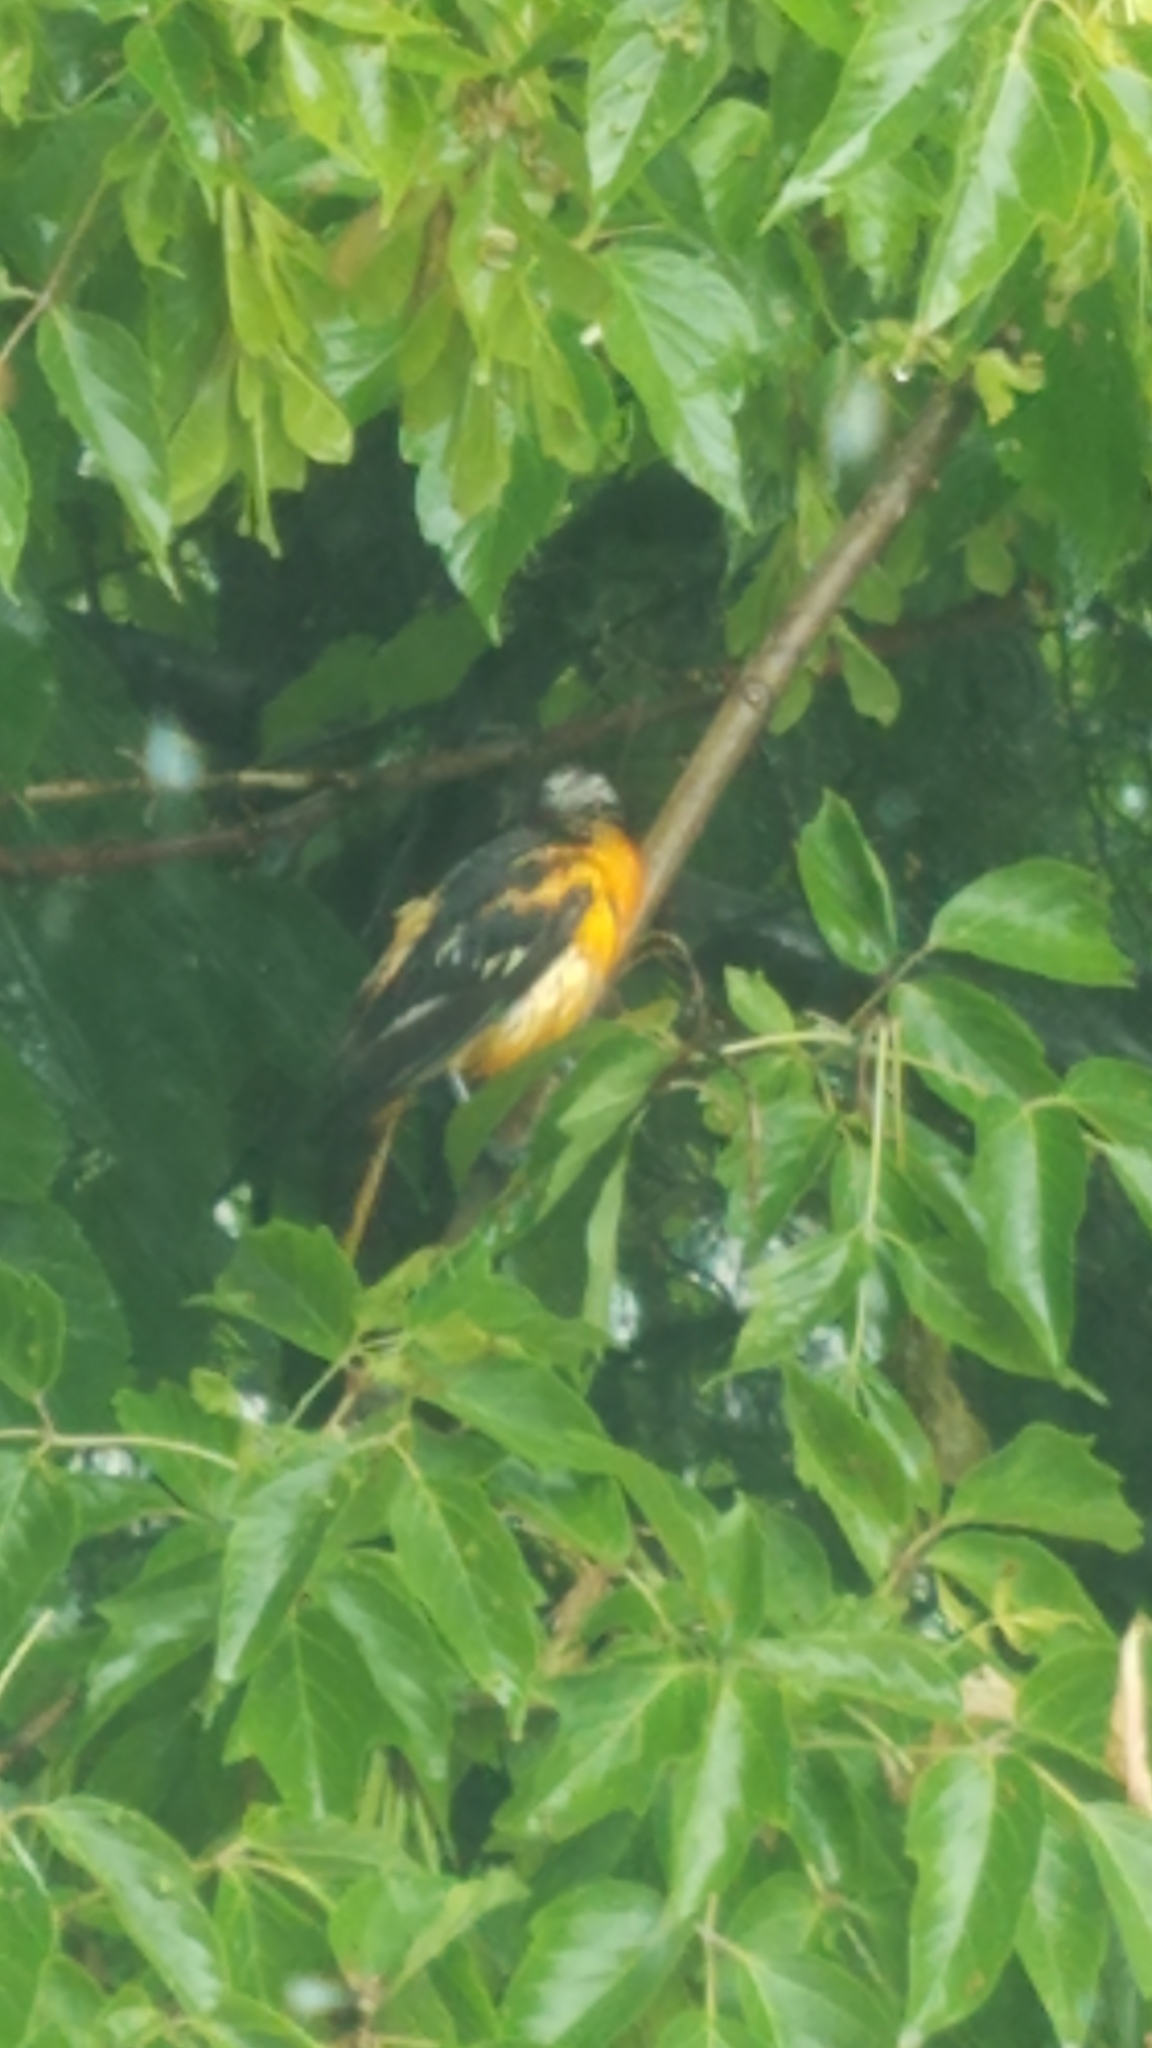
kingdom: Animalia
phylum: Chordata
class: Aves
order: Passeriformes
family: Icteridae
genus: Icterus
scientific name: Icterus galbula
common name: Baltimore oriole
